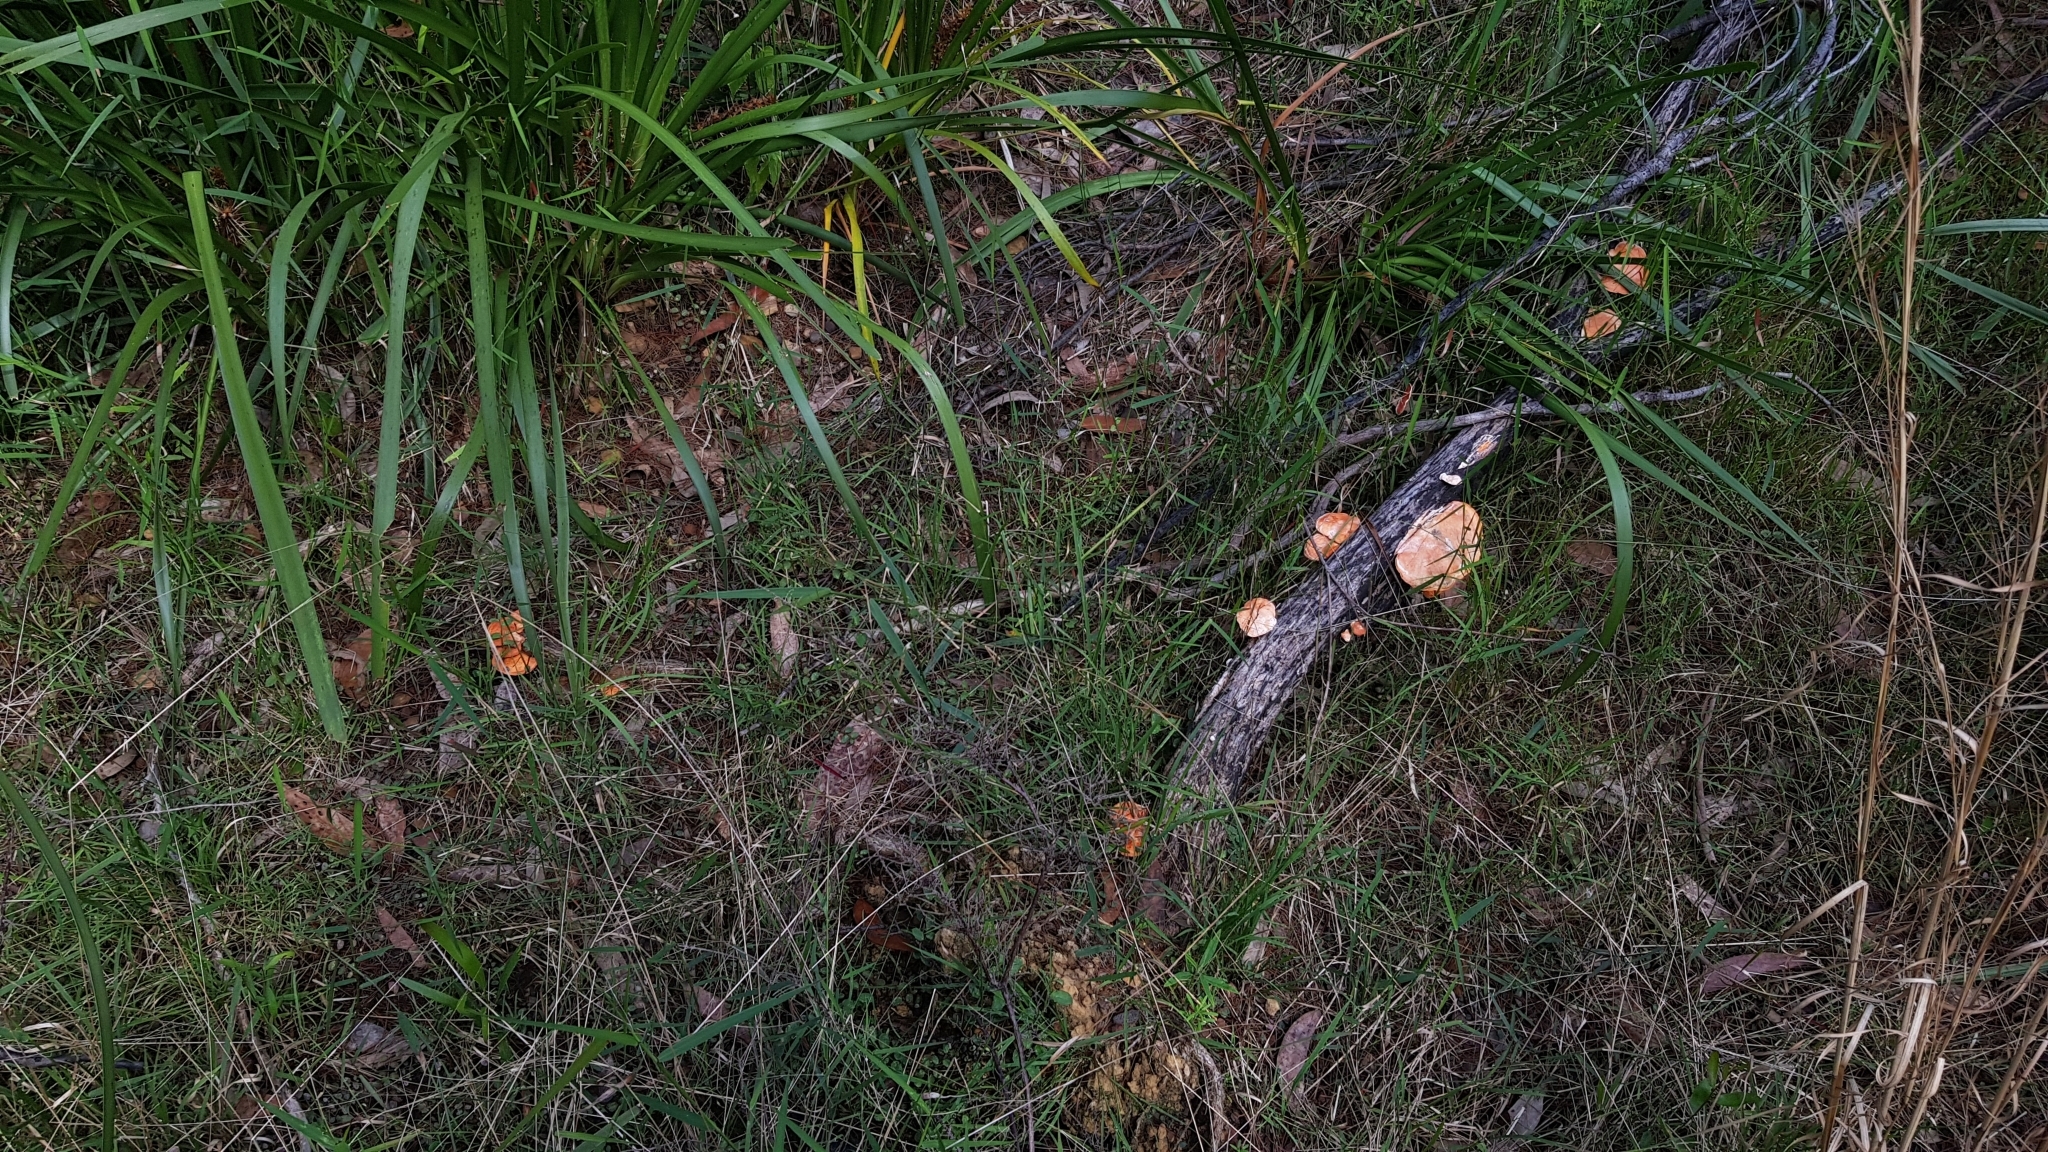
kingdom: Fungi
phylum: Basidiomycota
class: Agaricomycetes
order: Polyporales
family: Polyporaceae
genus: Trametes
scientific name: Trametes coccinea
